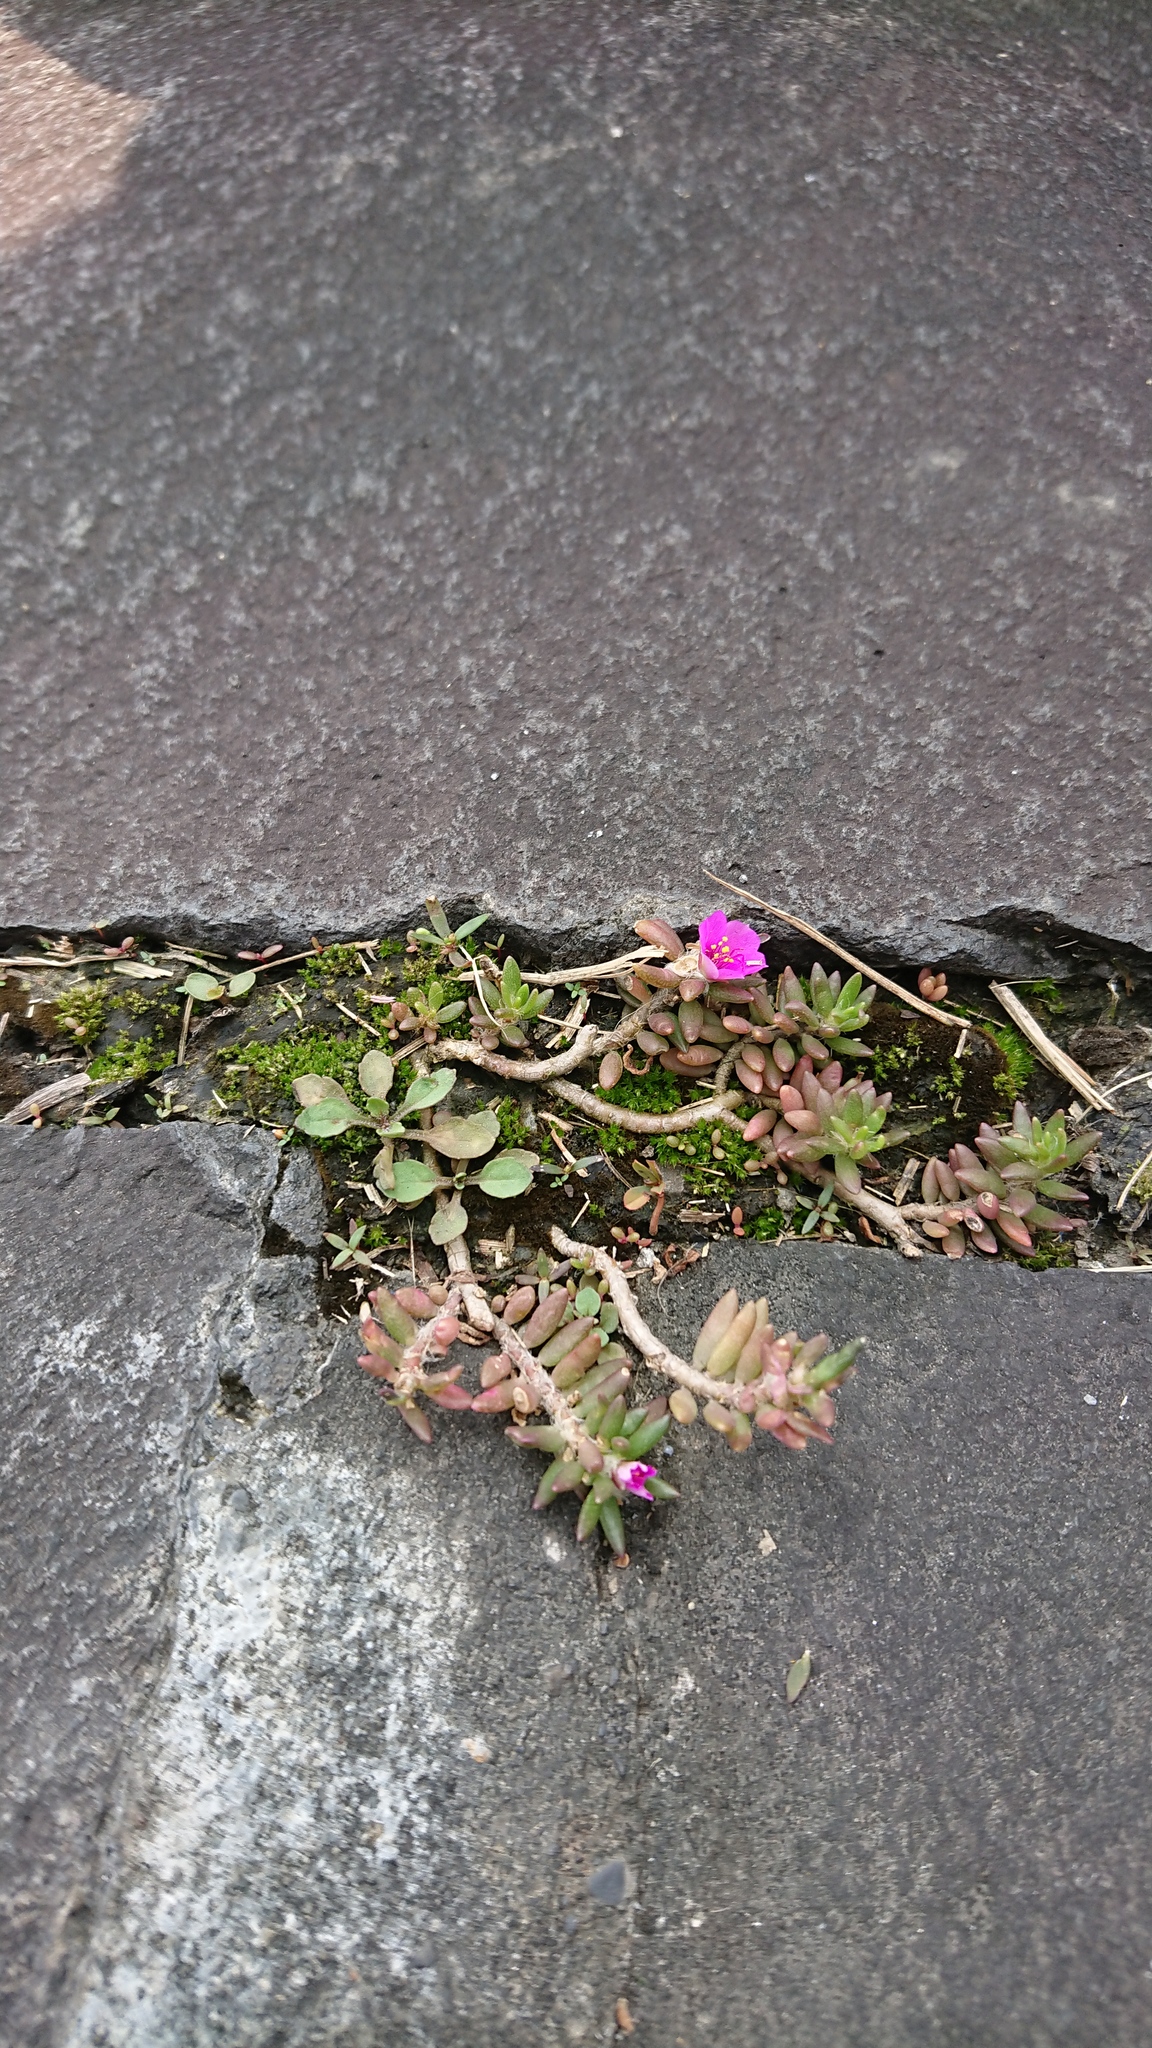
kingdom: Plantae
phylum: Tracheophyta
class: Magnoliopsida
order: Caryophyllales
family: Portulacaceae
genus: Portulaca
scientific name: Portulaca pilosa
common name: Kiss me quick
